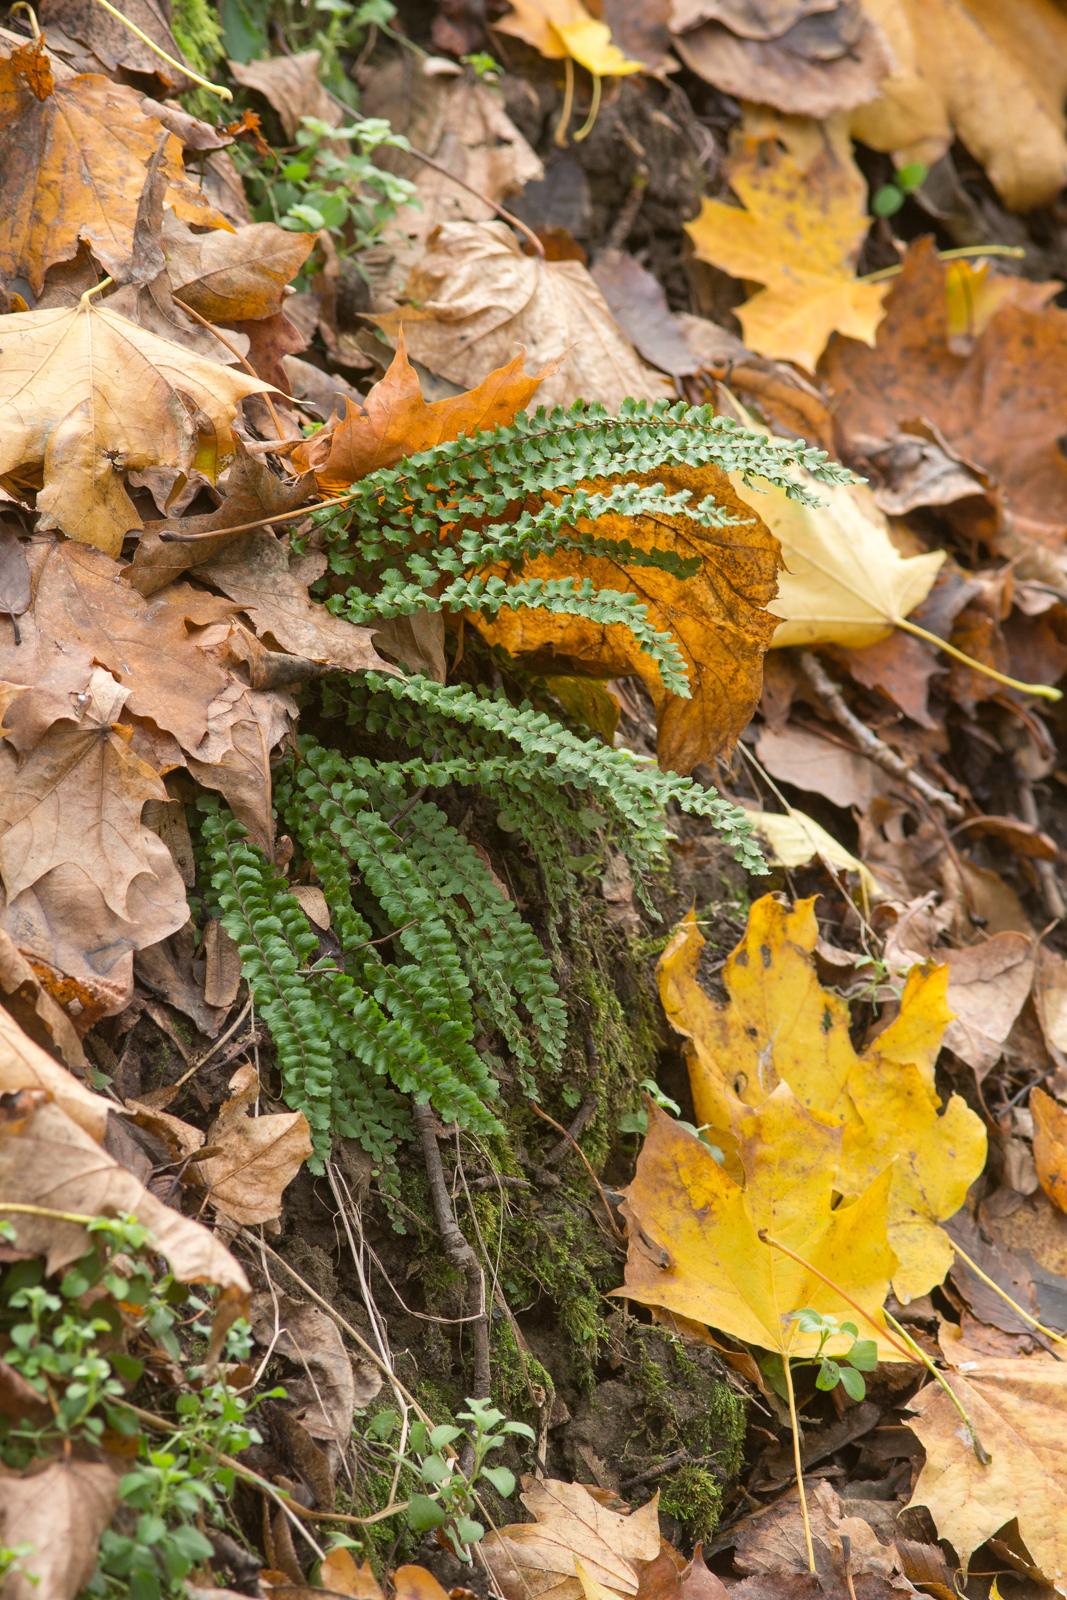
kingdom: Plantae
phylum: Tracheophyta
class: Polypodiopsida
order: Polypodiales
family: Aspleniaceae
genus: Asplenium
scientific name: Asplenium trichomanes
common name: Maidenhair spleenwort
